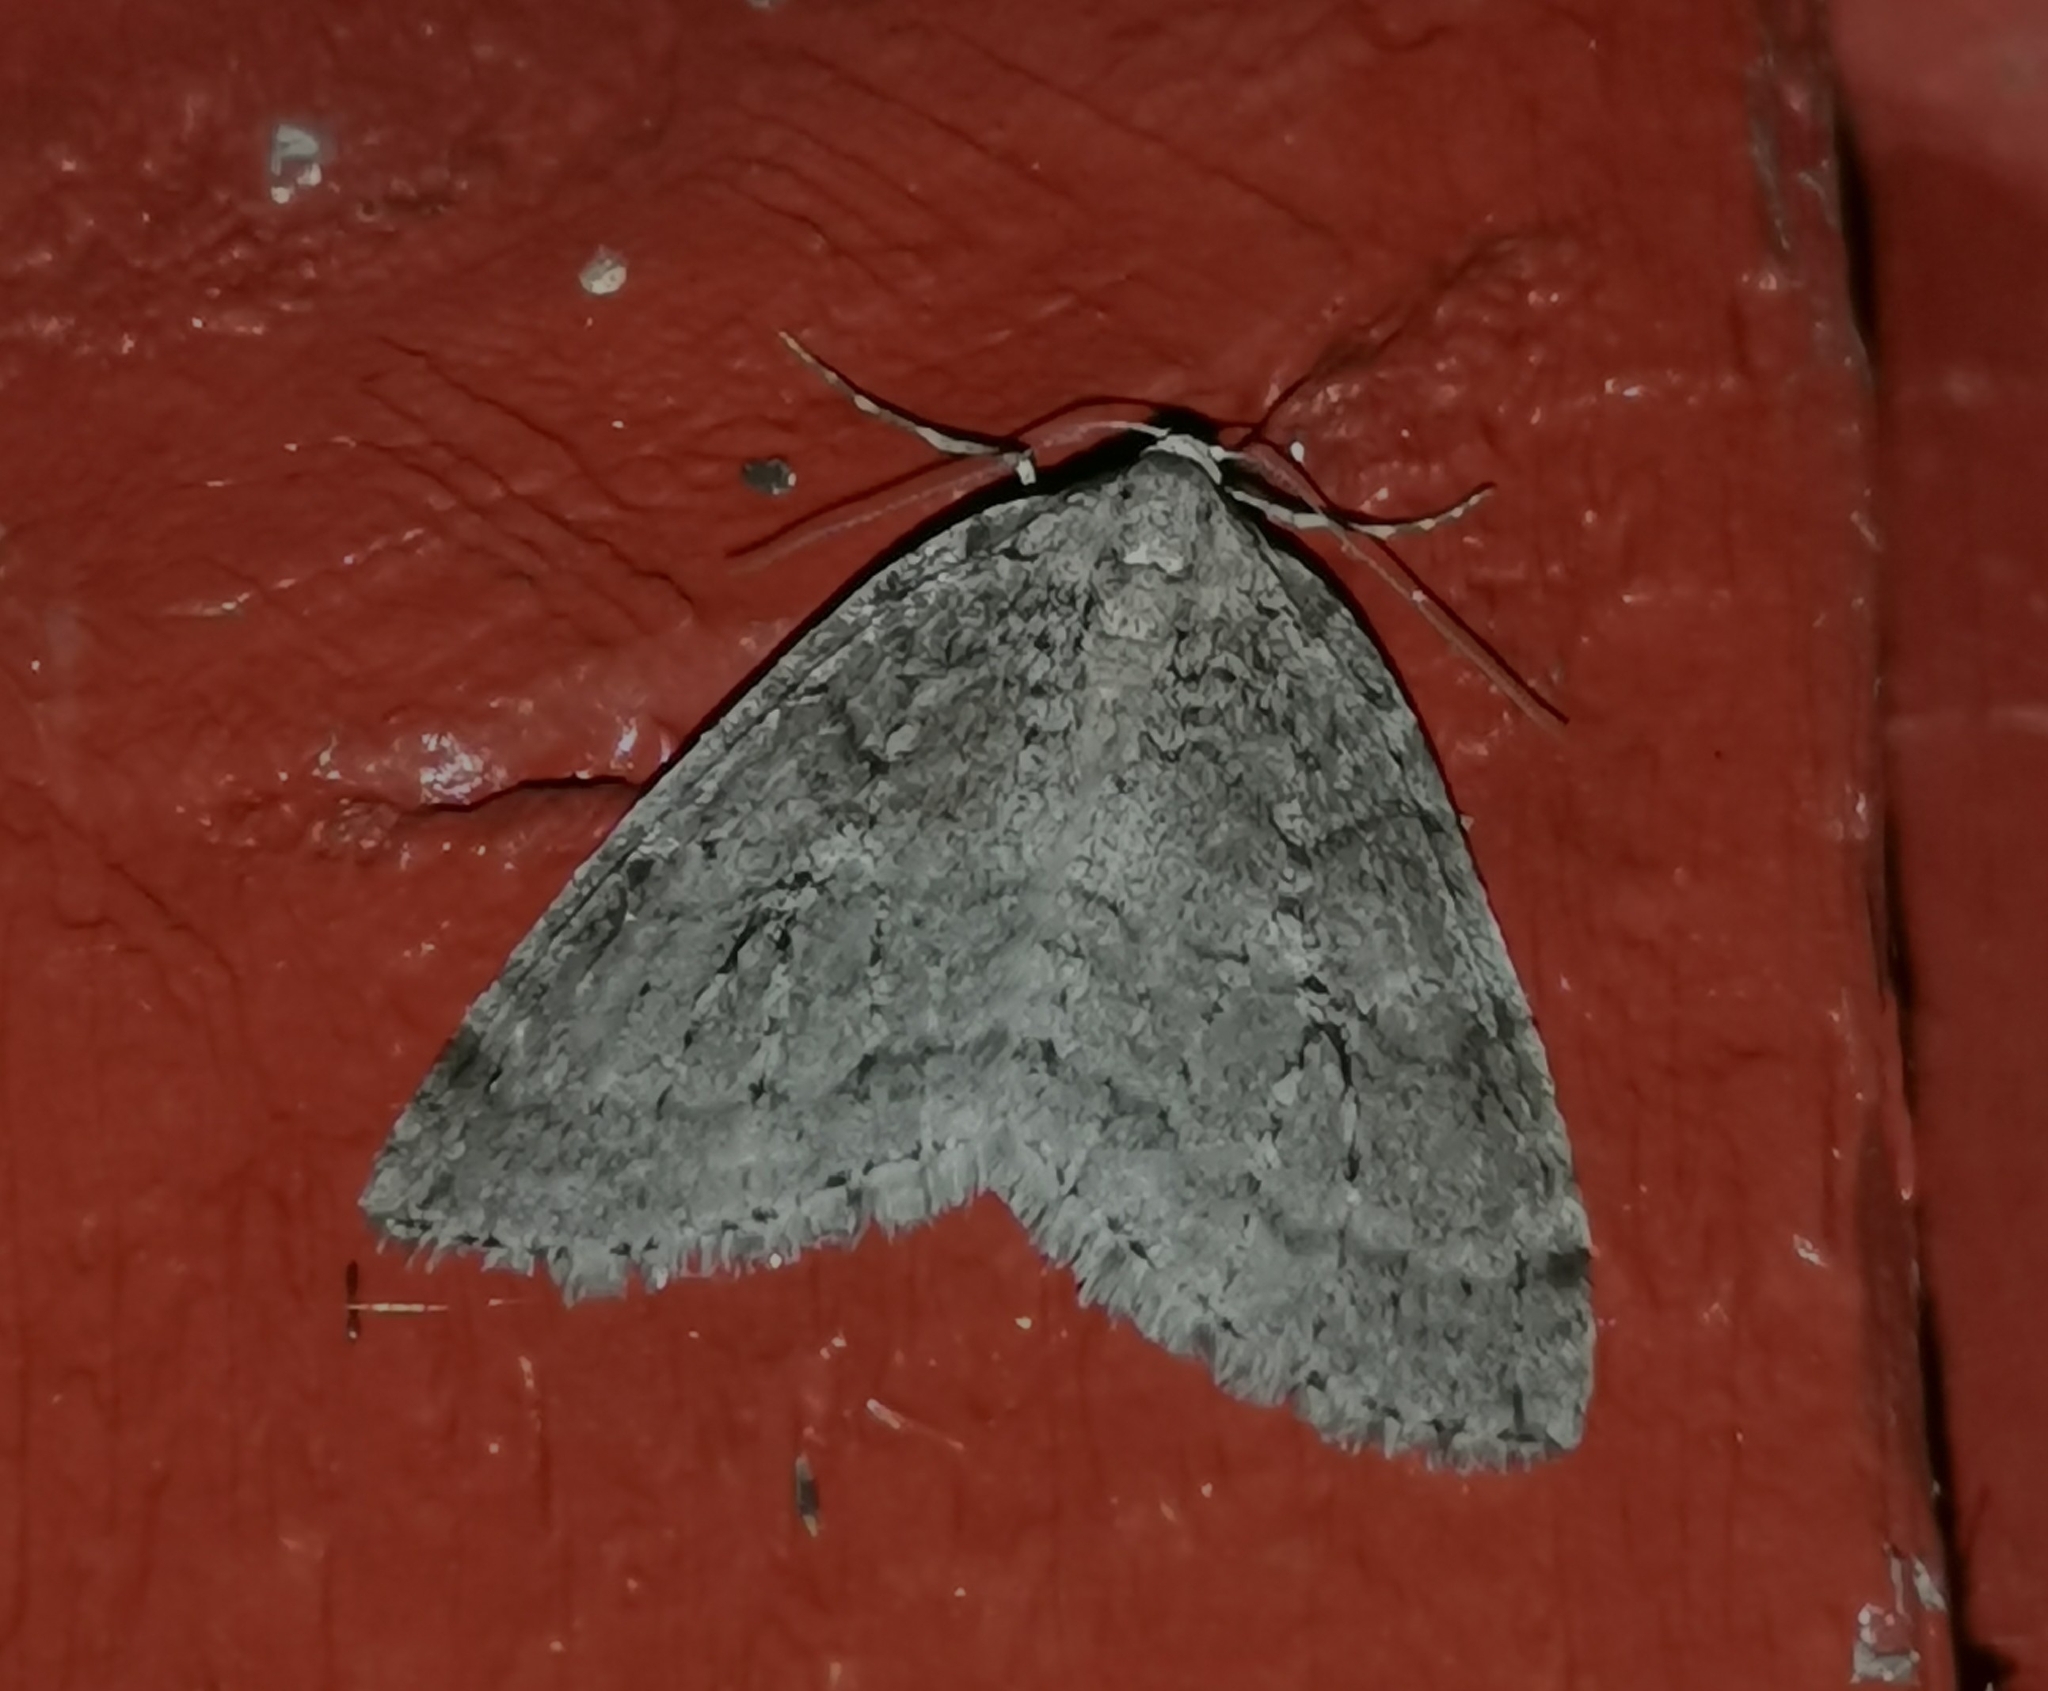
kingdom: Animalia
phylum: Arthropoda
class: Insecta
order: Lepidoptera
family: Geometridae
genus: Epirrita
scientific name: Epirrita autumnata
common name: Autumnal moth
